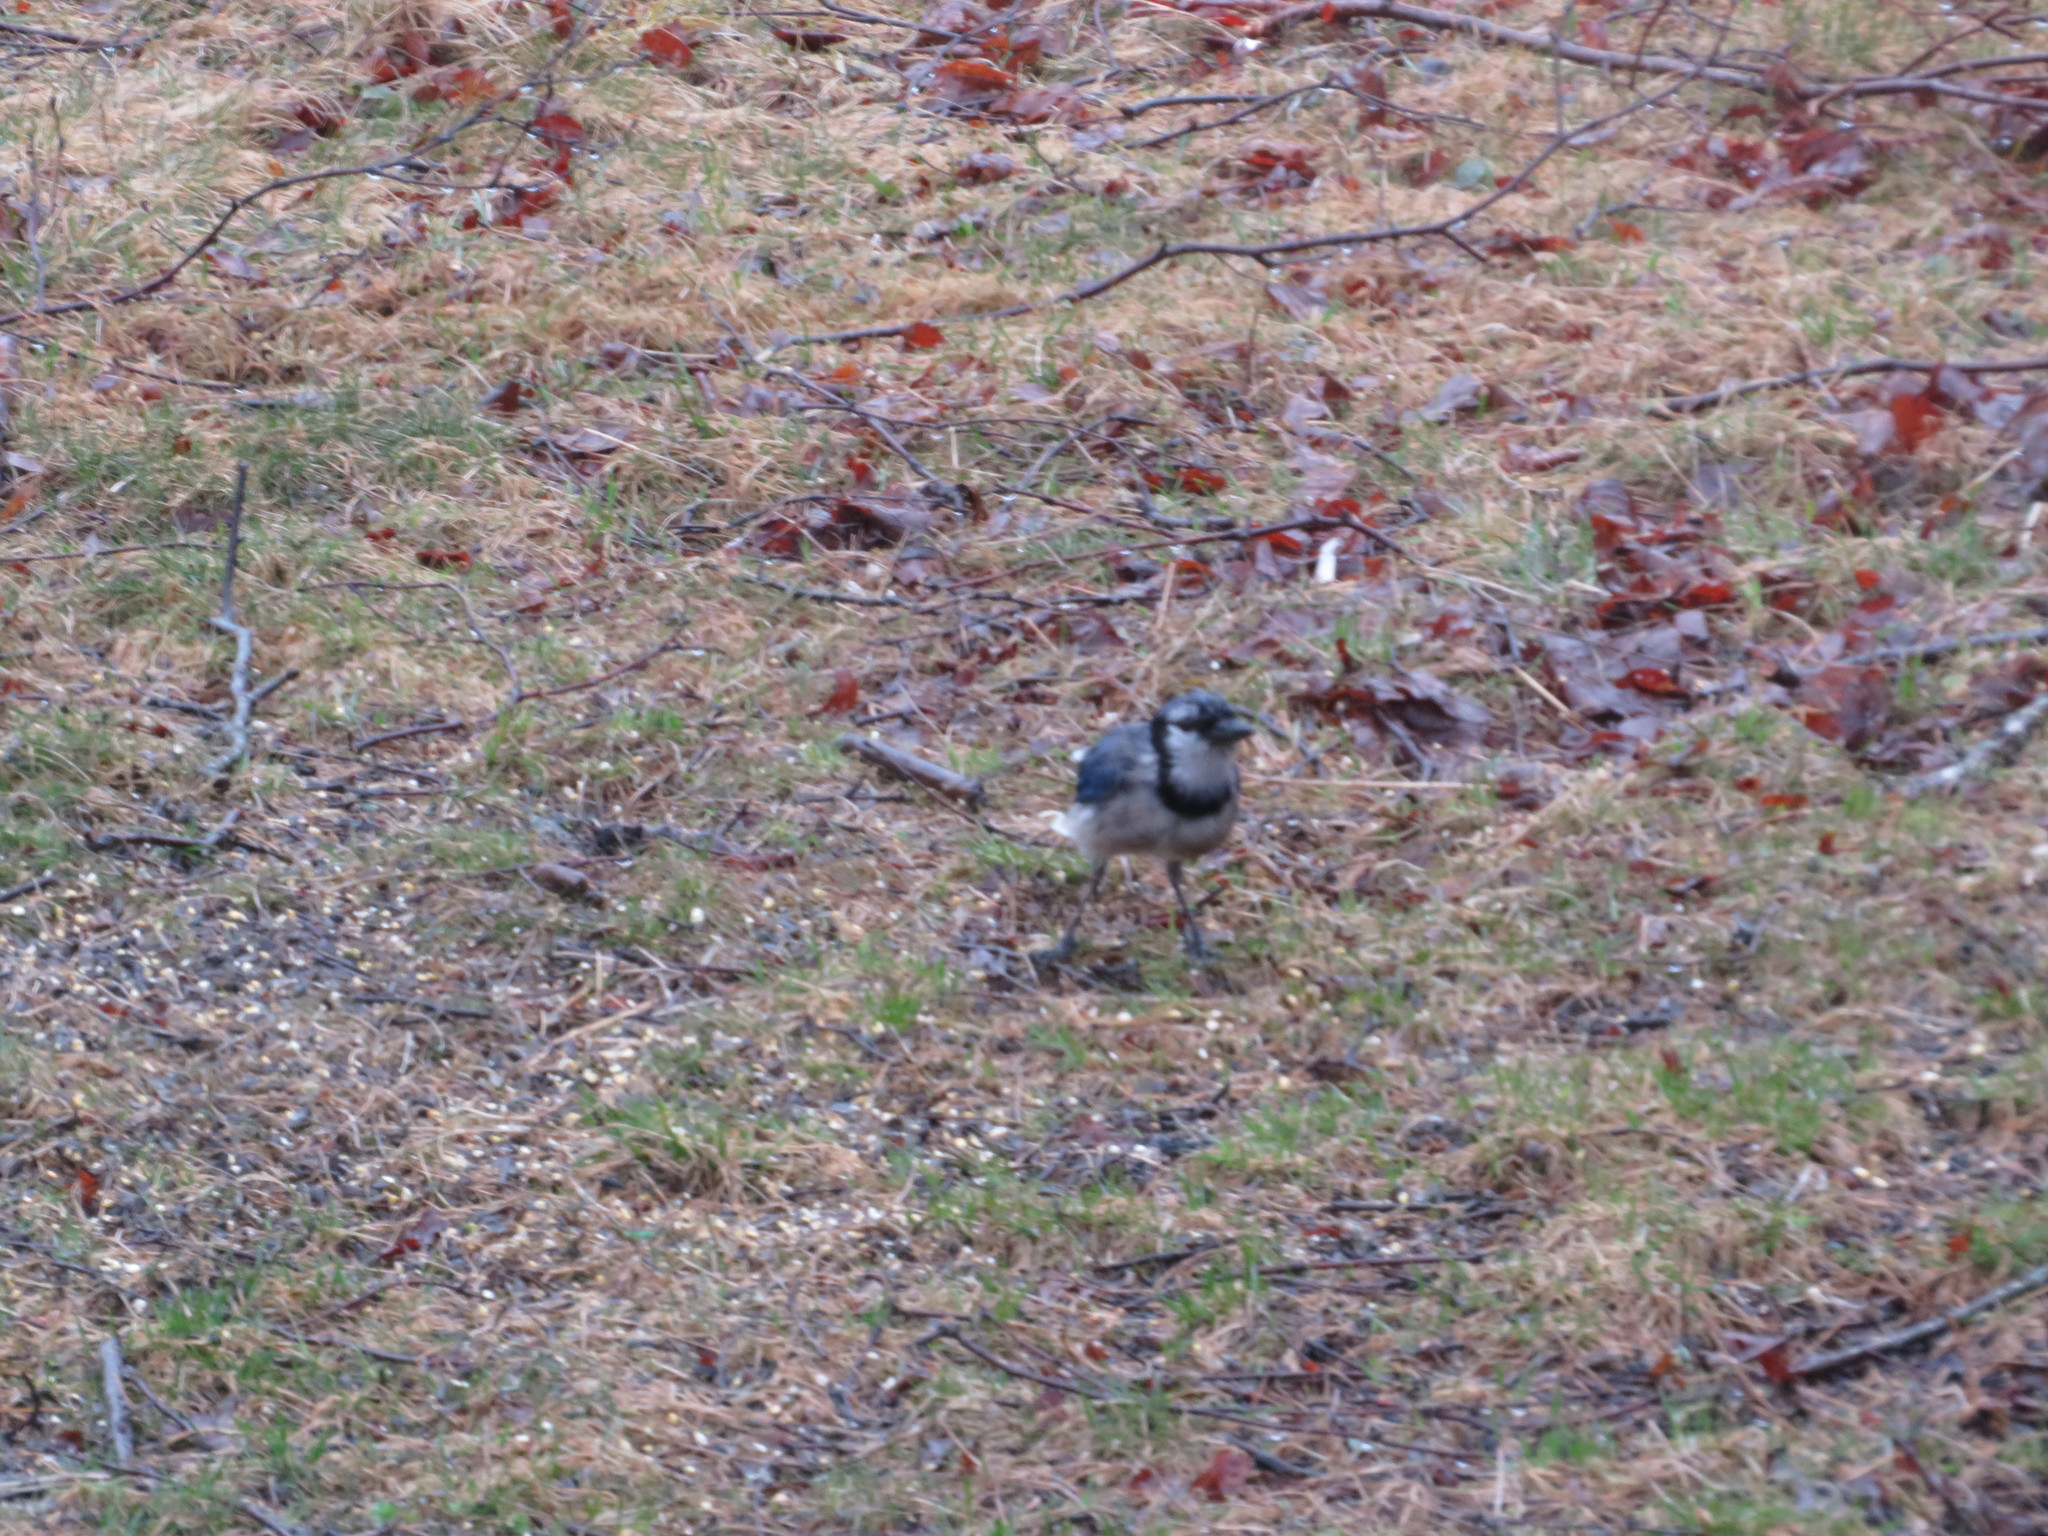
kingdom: Animalia
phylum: Chordata
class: Aves
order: Passeriformes
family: Corvidae
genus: Cyanocitta
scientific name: Cyanocitta cristata
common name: Blue jay
